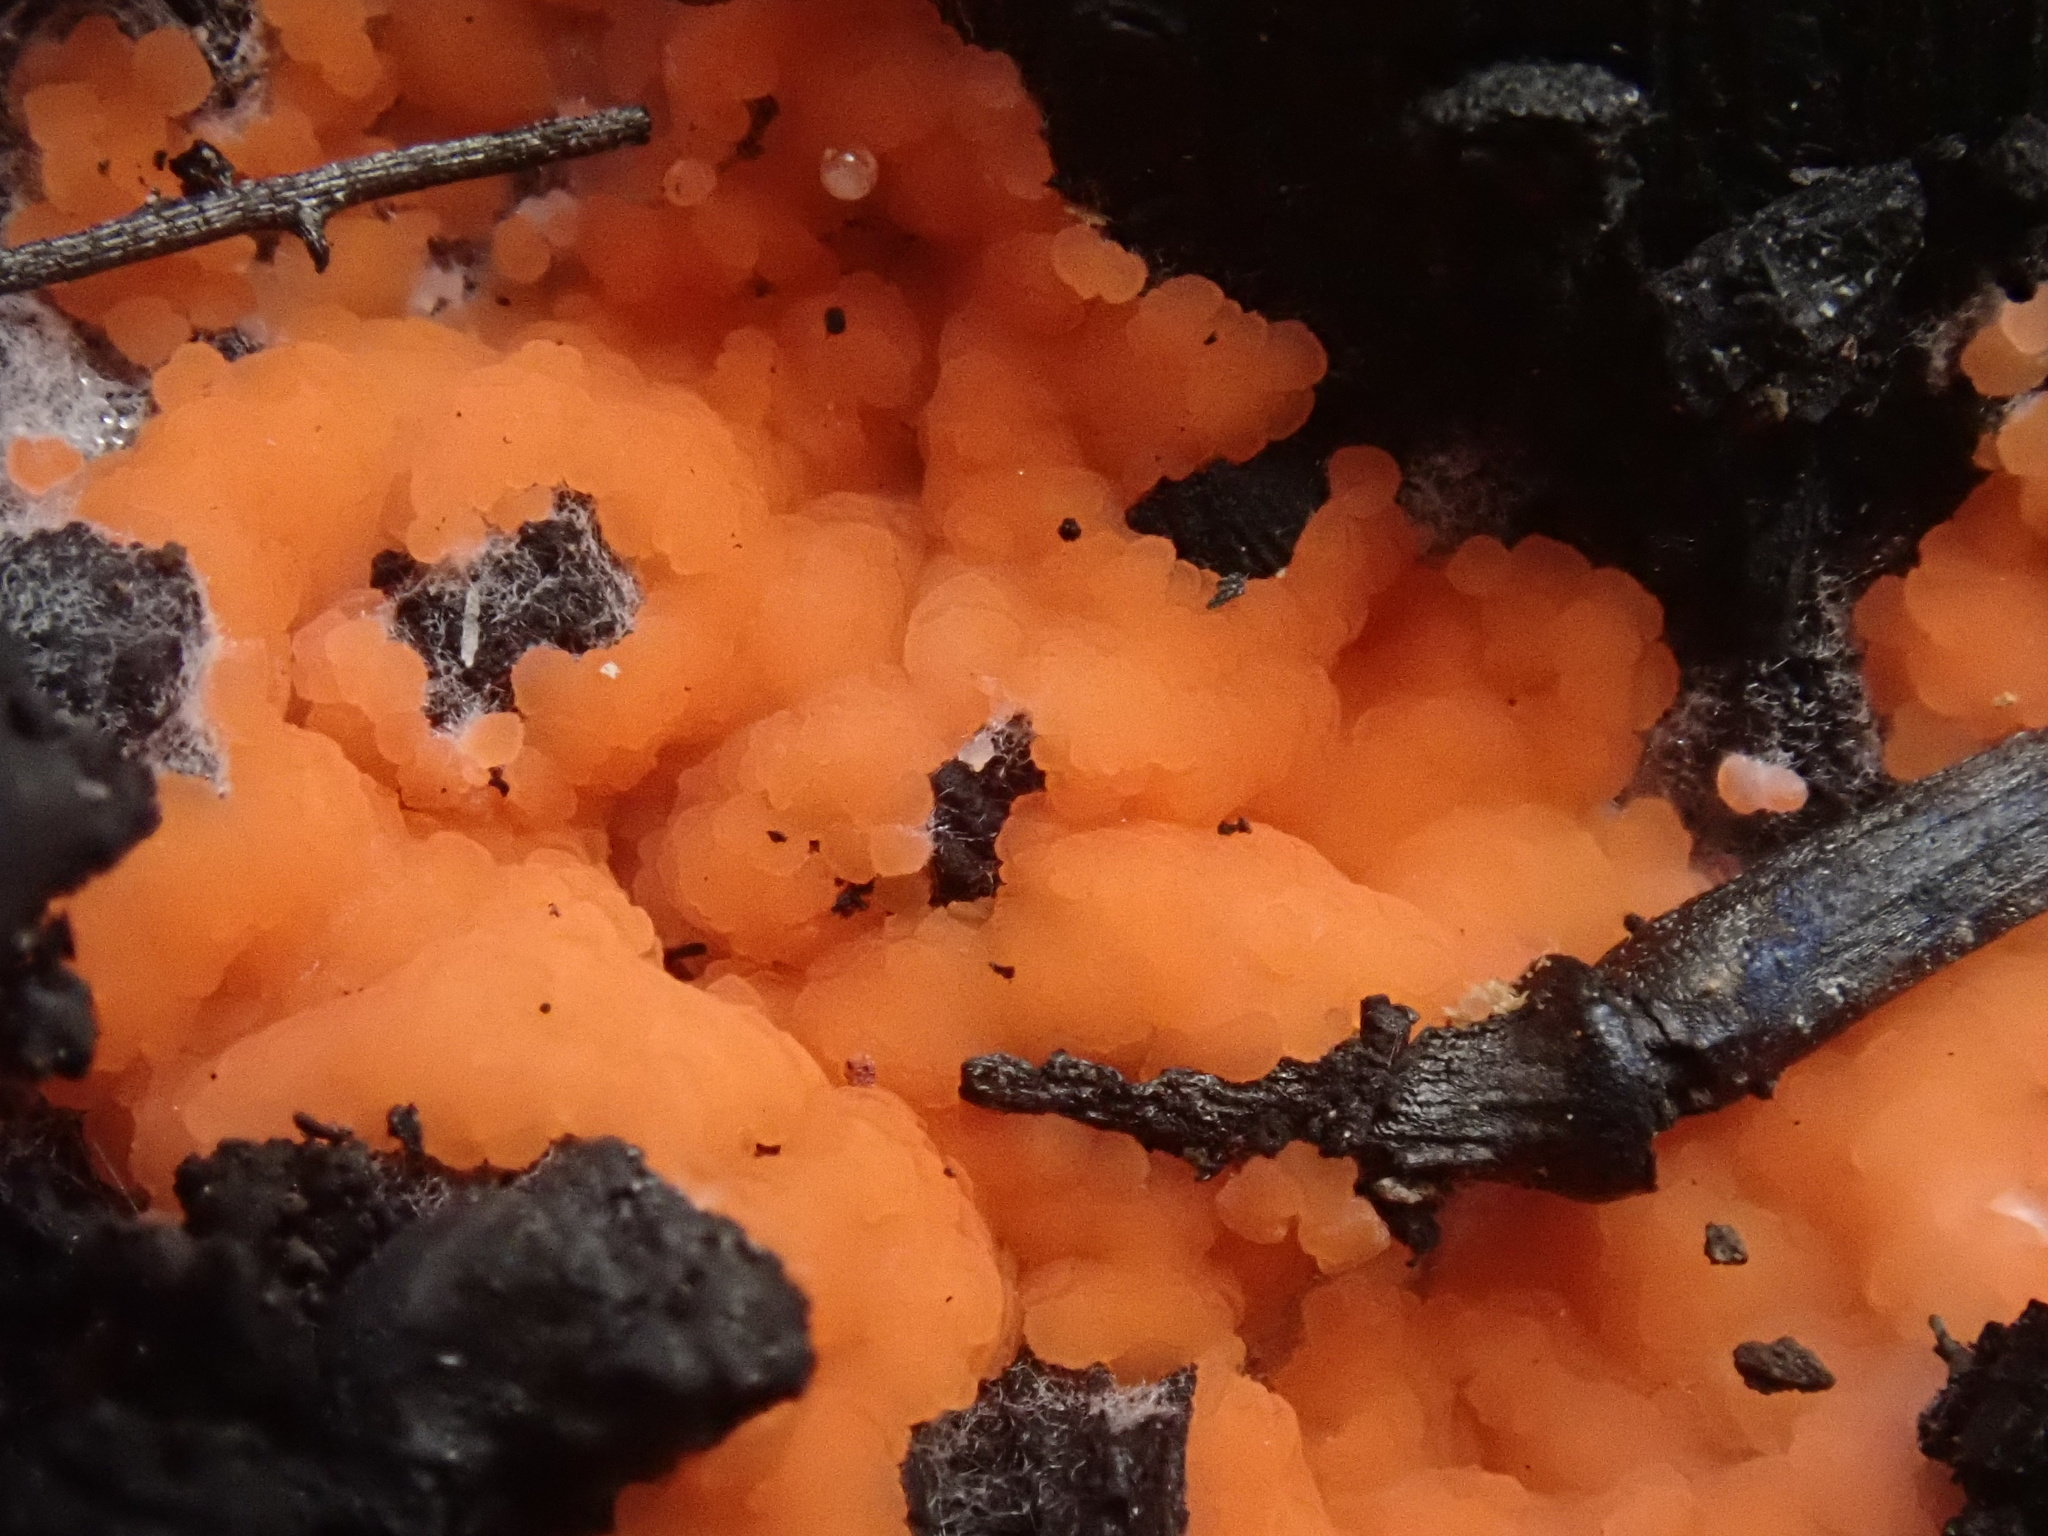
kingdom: Fungi
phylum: Ascomycota
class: Pezizomycetes
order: Pezizales
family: Pyronemataceae
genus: Pyronema
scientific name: Pyronema omphalodes
